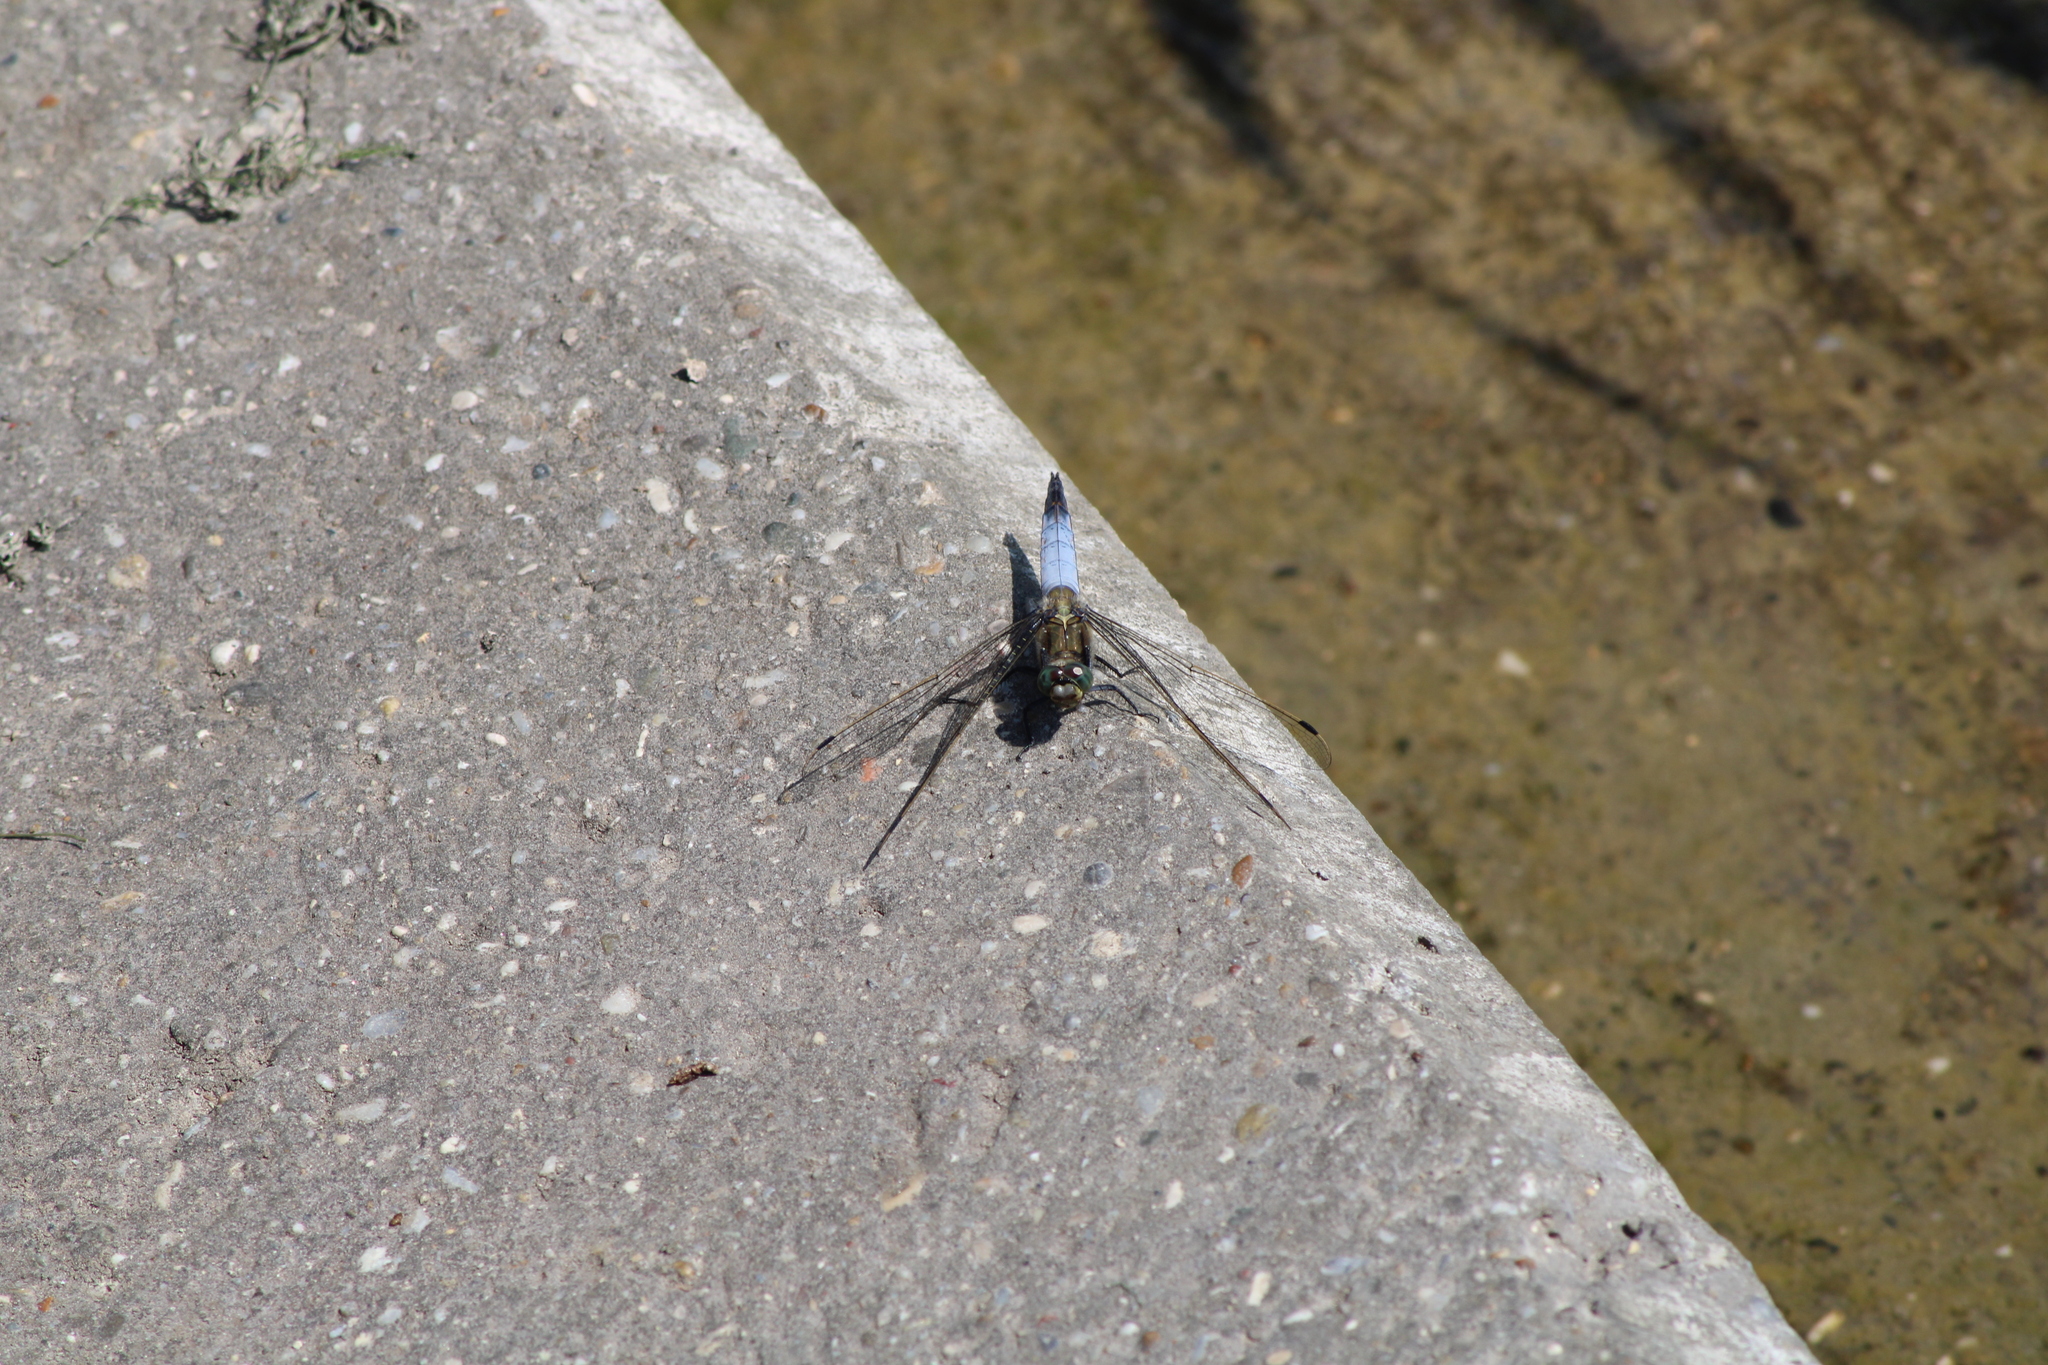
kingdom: Animalia
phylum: Arthropoda
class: Insecta
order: Odonata
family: Libellulidae
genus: Orthetrum
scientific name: Orthetrum cancellatum
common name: Black-tailed skimmer
